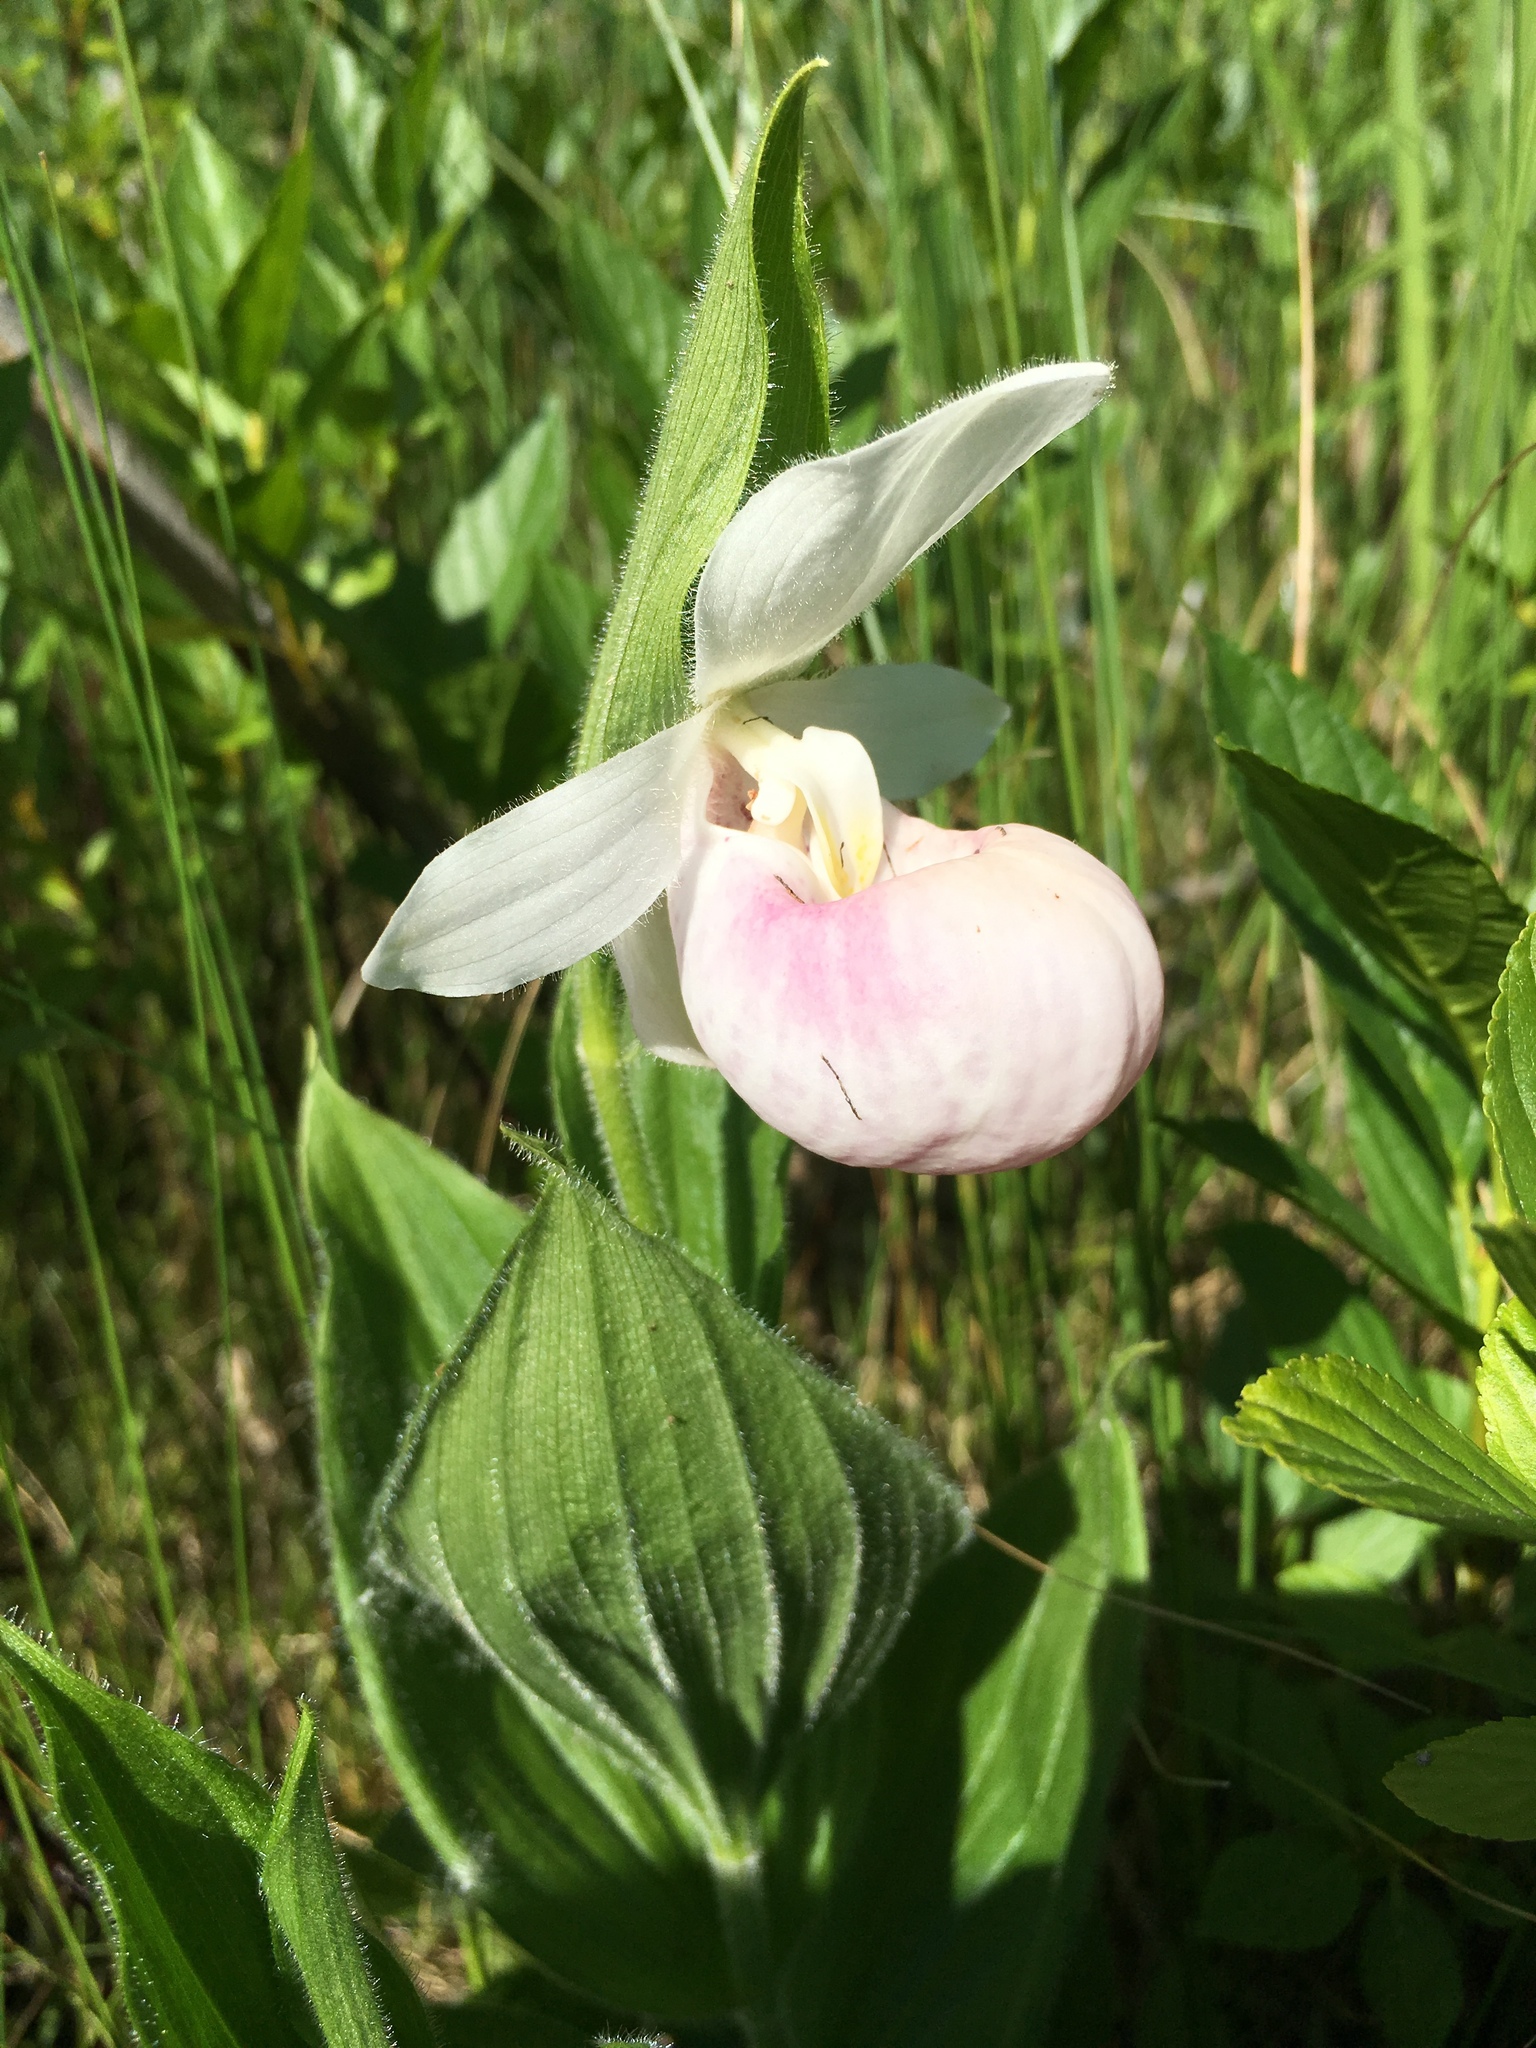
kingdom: Plantae
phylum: Tracheophyta
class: Liliopsida
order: Asparagales
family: Orchidaceae
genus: Cypripedium
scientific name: Cypripedium reginae
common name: Queen lady's-slipper
